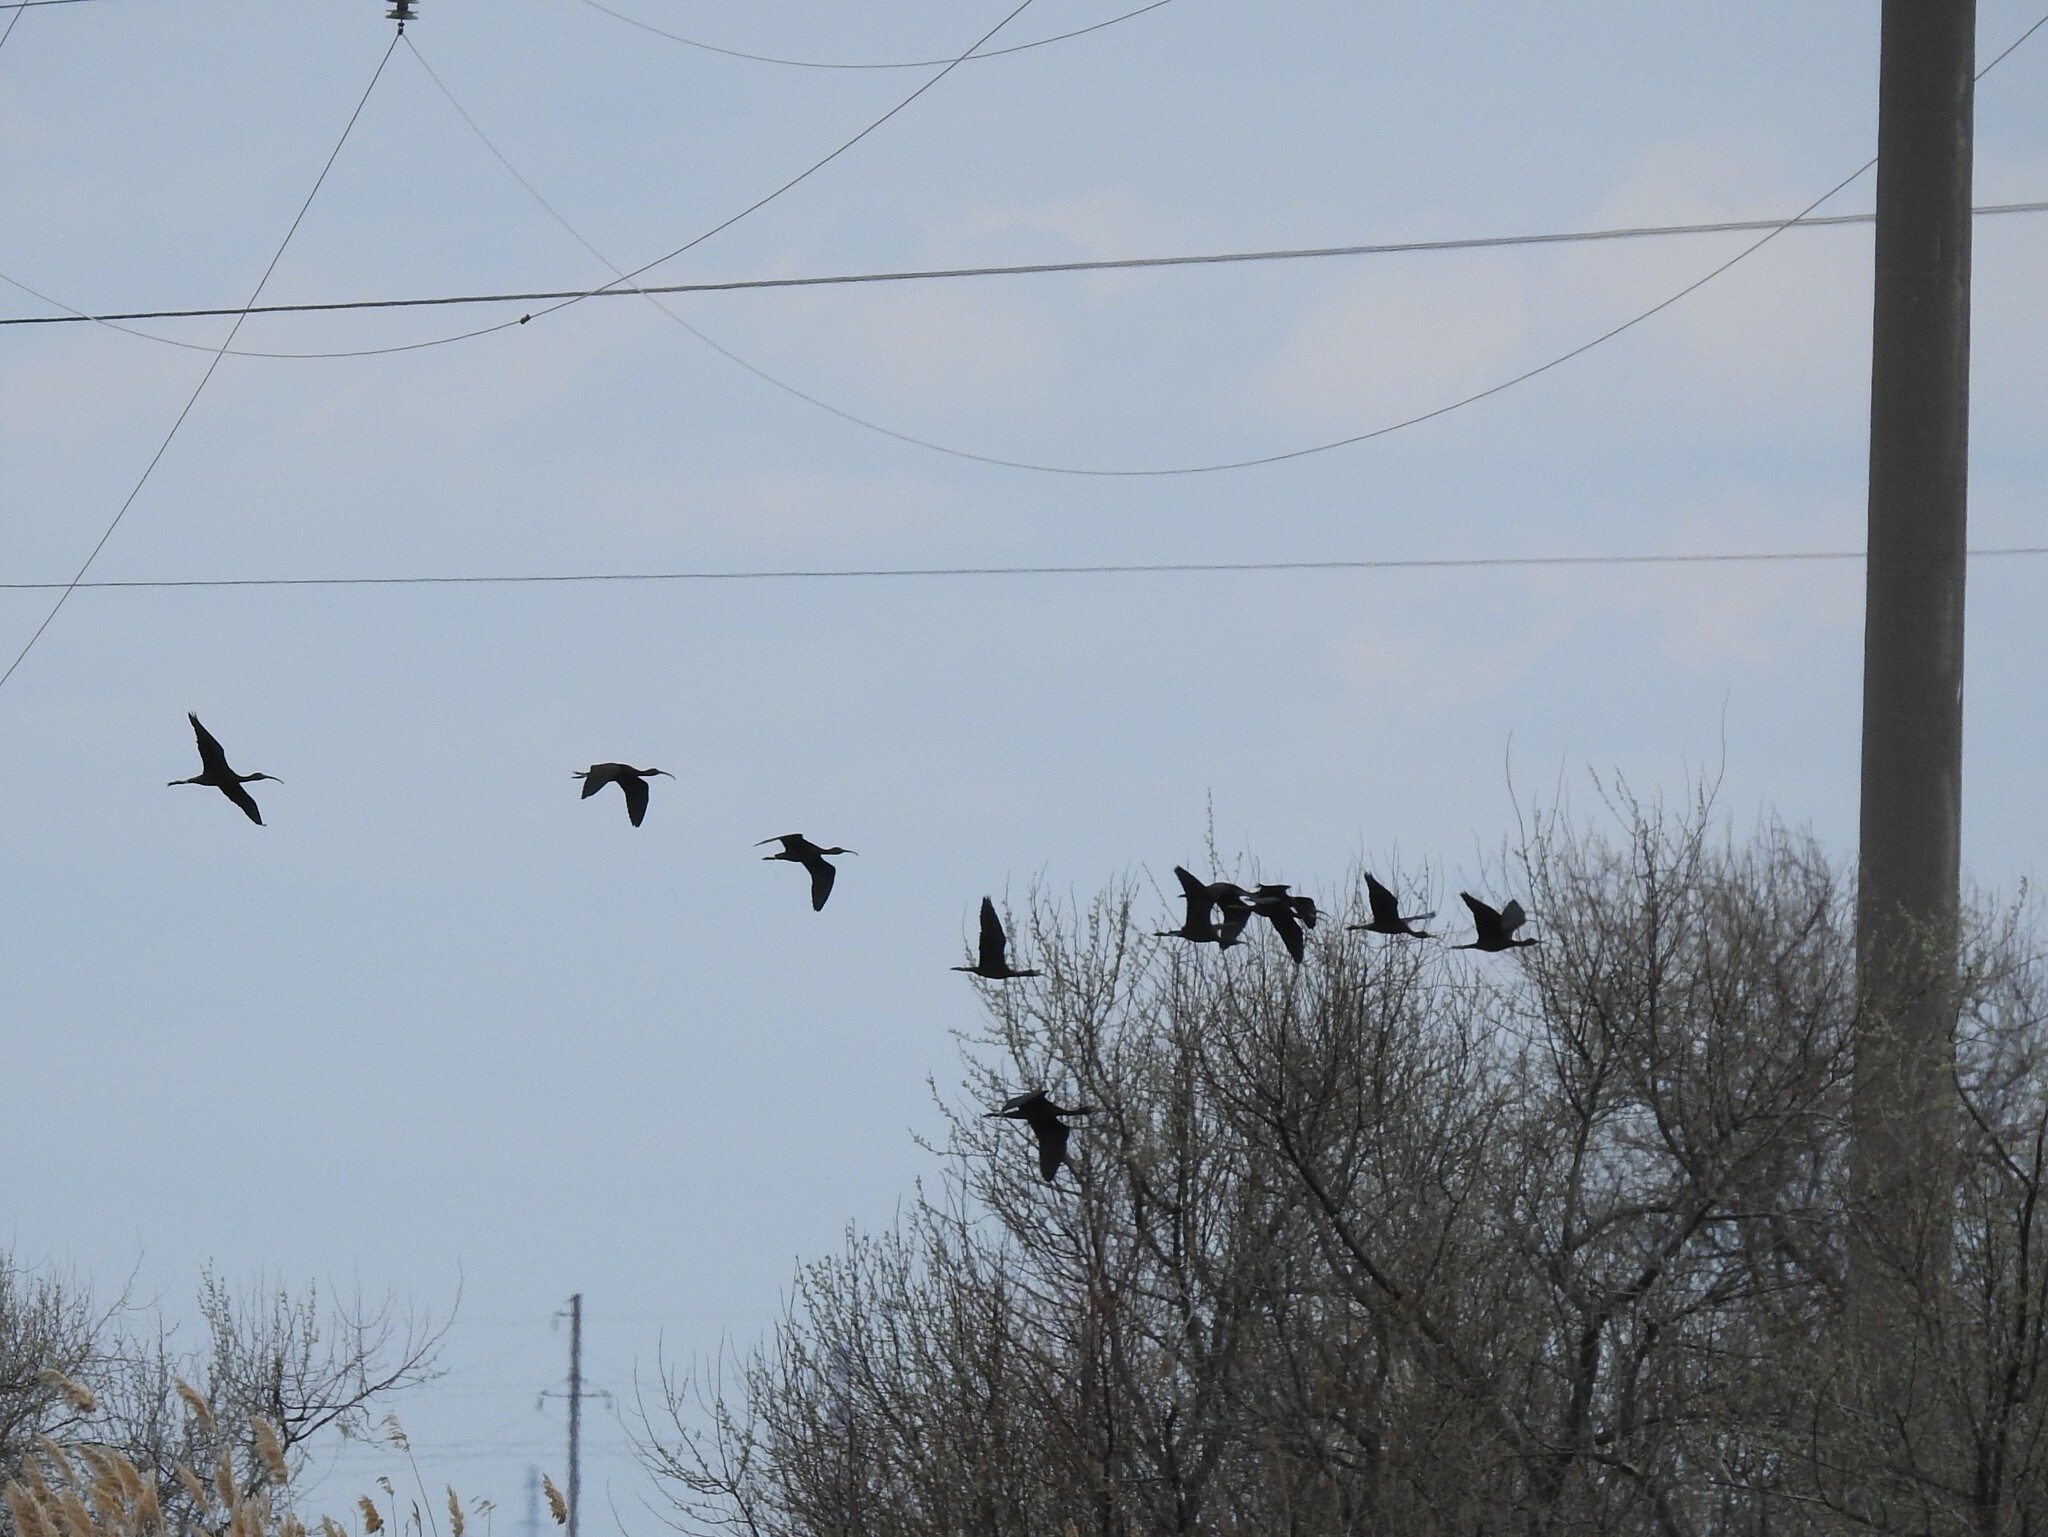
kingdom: Animalia
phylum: Chordata
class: Aves
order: Pelecaniformes
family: Threskiornithidae
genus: Plegadis
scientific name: Plegadis falcinellus
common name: Glossy ibis
